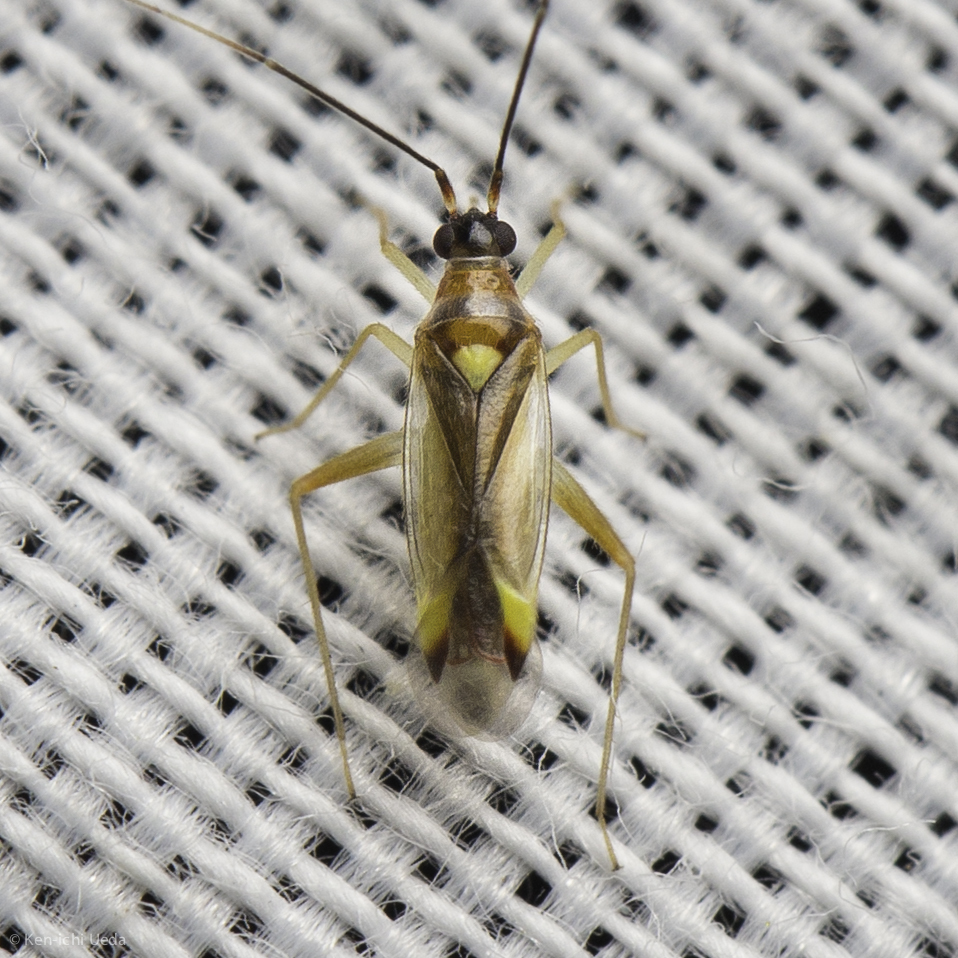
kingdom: Animalia
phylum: Arthropoda
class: Insecta
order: Hemiptera
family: Miridae
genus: Campyloneura
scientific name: Campyloneura virgula
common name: Predatory bug
